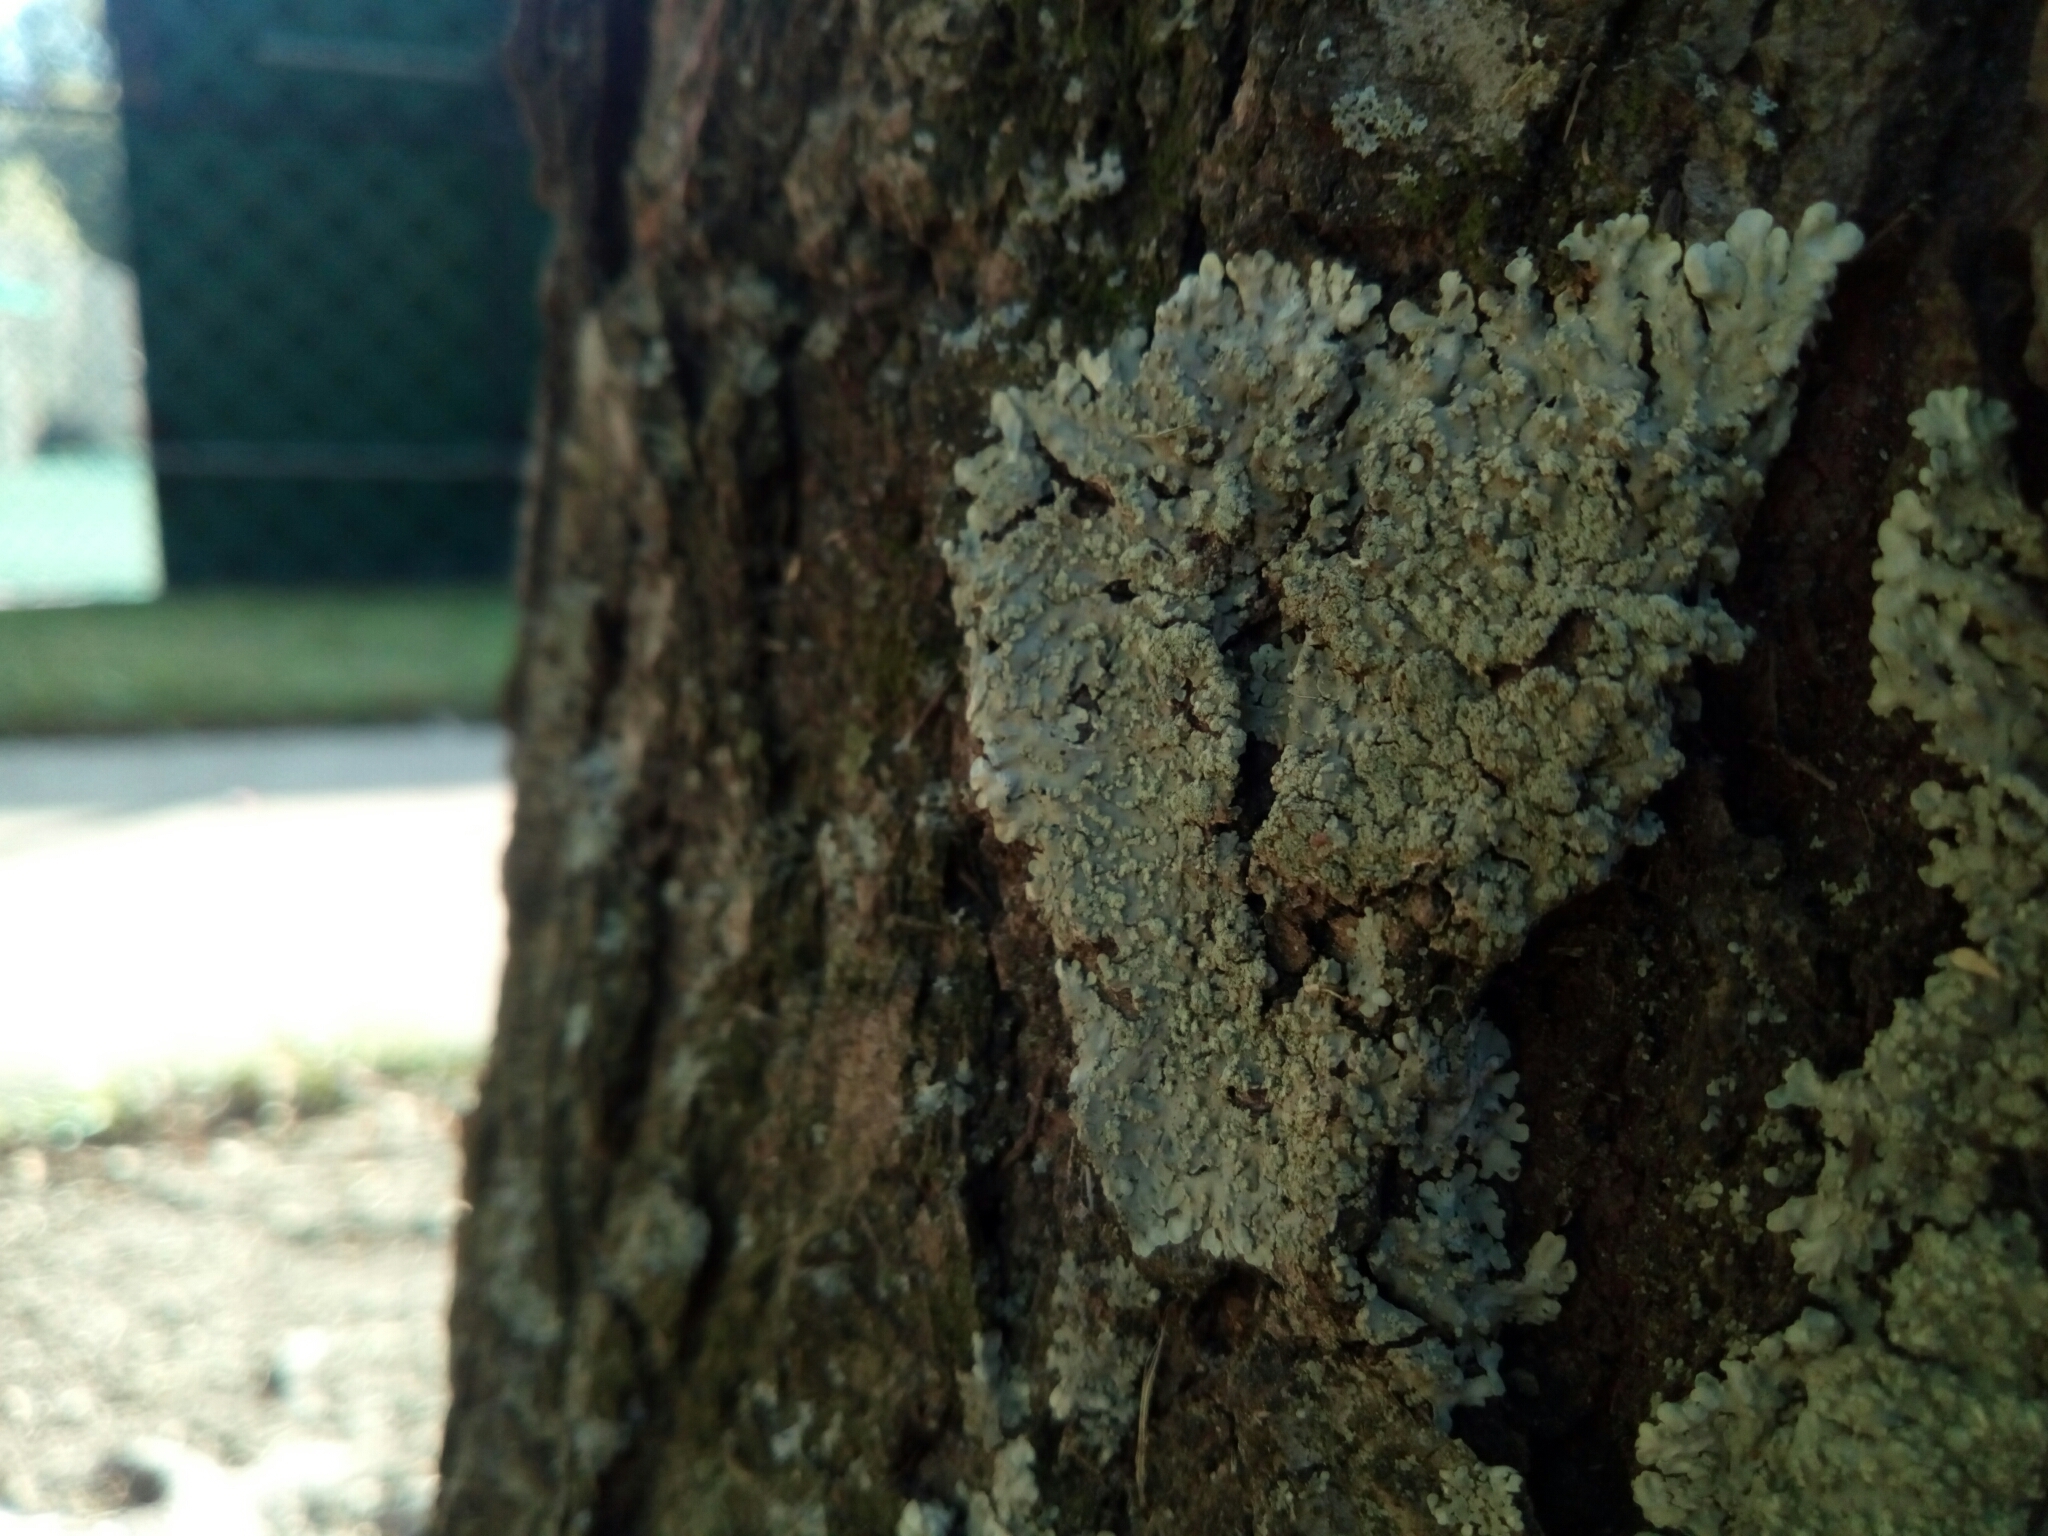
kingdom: Fungi
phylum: Ascomycota
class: Lecanoromycetes
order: Caliciales
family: Caliciaceae
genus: Pyxine
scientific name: Pyxine subcinerea
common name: Mustard lichen
